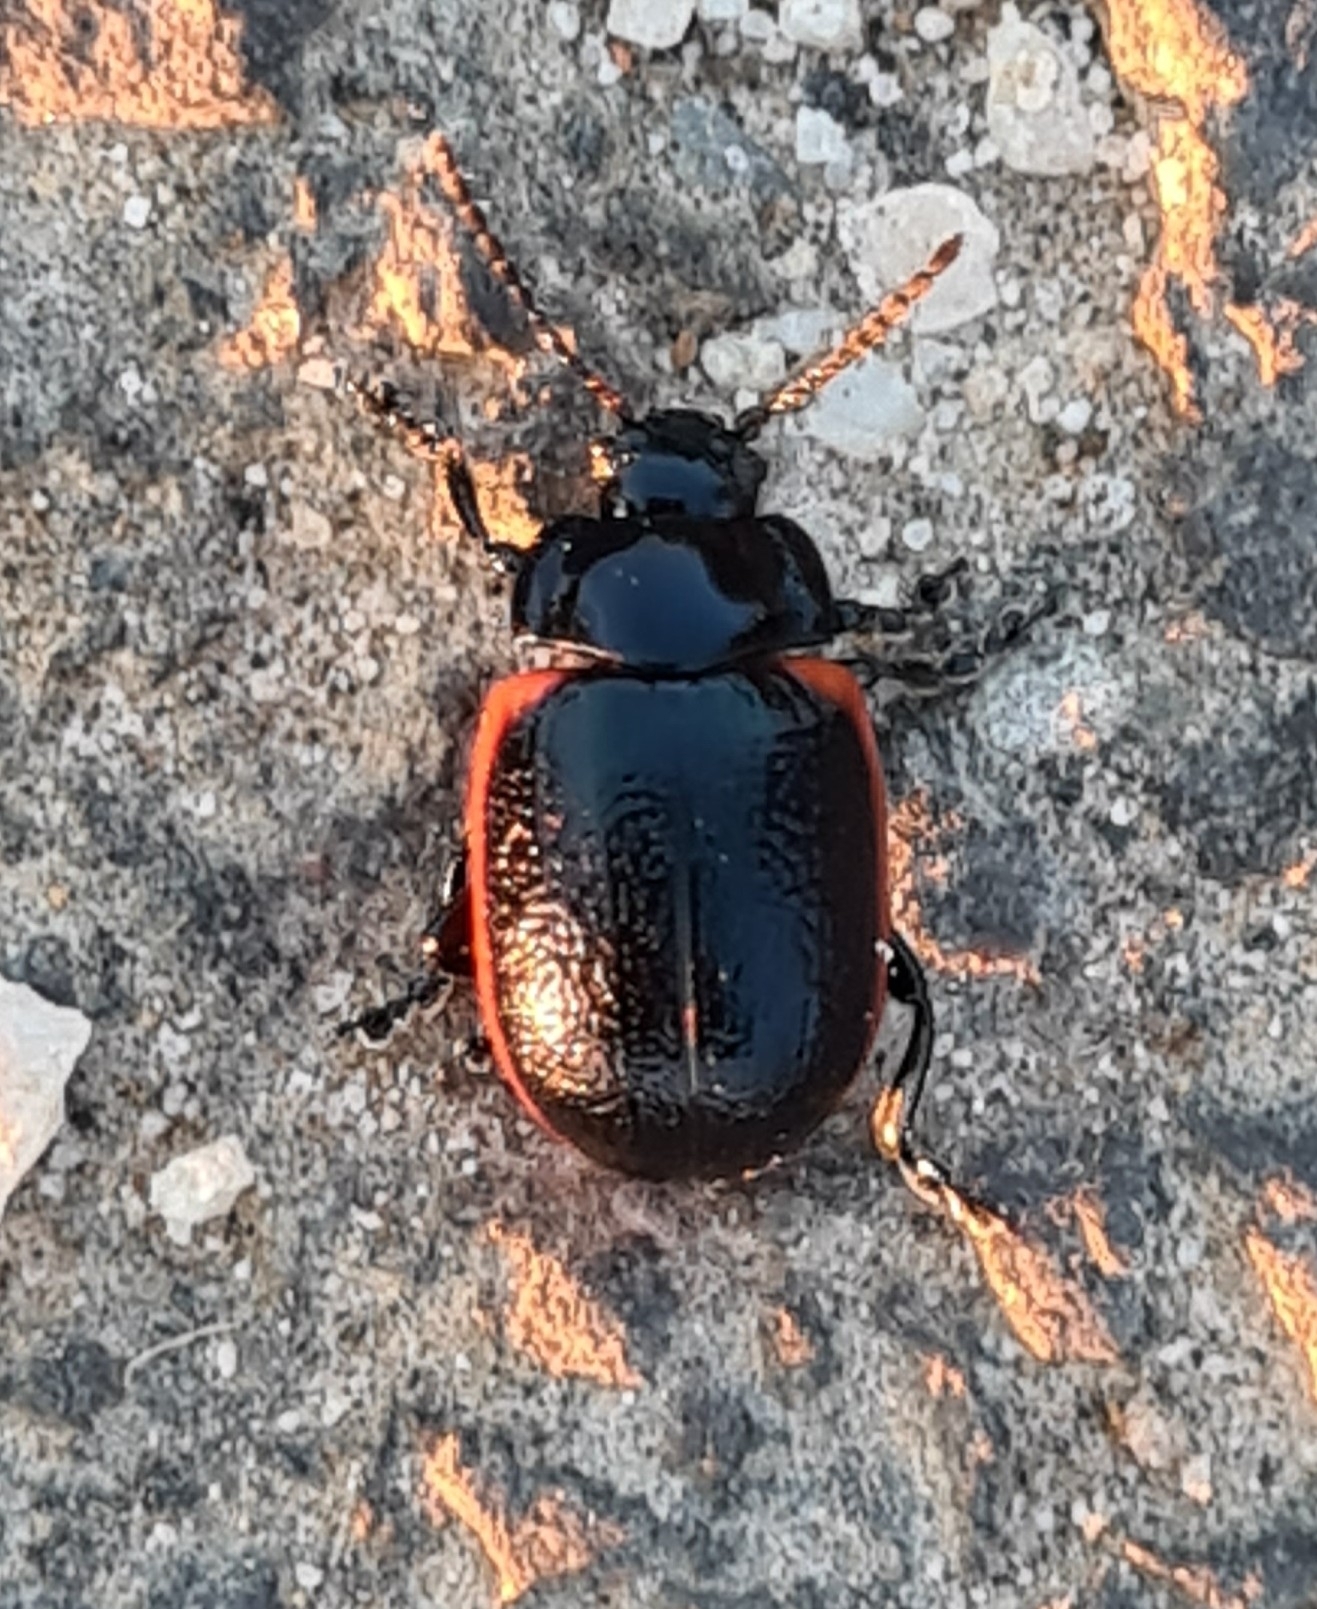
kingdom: Animalia
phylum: Arthropoda
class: Insecta
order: Coleoptera
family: Chrysomelidae
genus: Chrysolina
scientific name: Chrysolina sanguinolenta
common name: Toadflax leaf beetle
